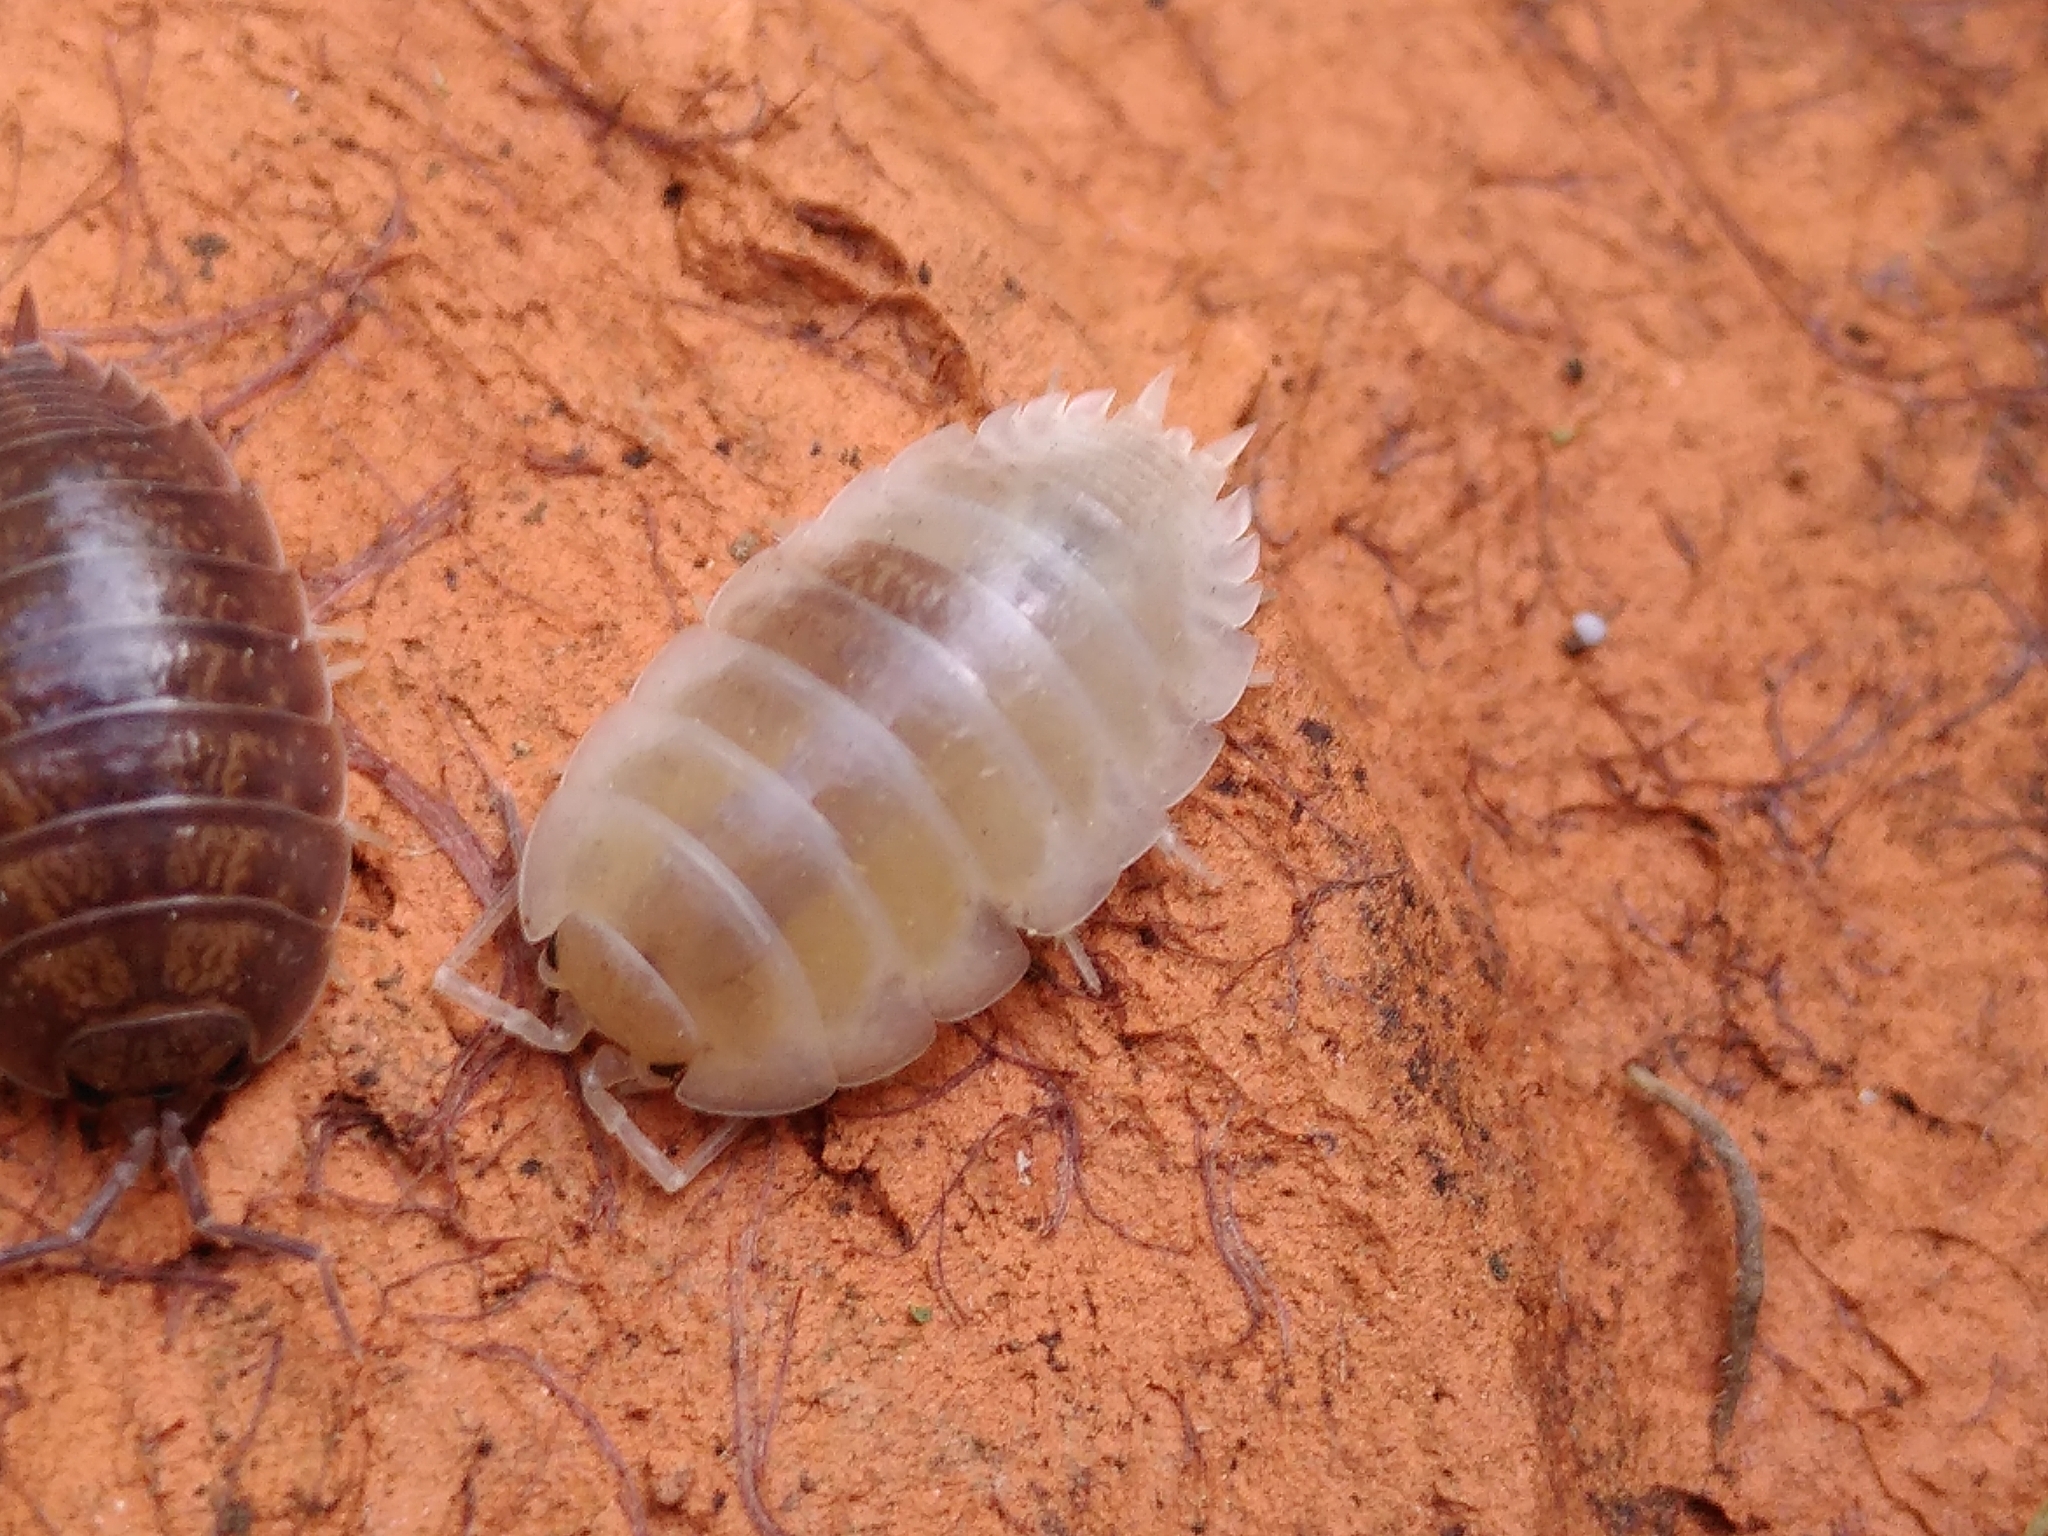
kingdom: Animalia
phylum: Arthropoda
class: Malacostraca
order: Isopoda
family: Porcellionidae
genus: Porcellio
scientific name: Porcellio laevis
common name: Swift woodlouse
